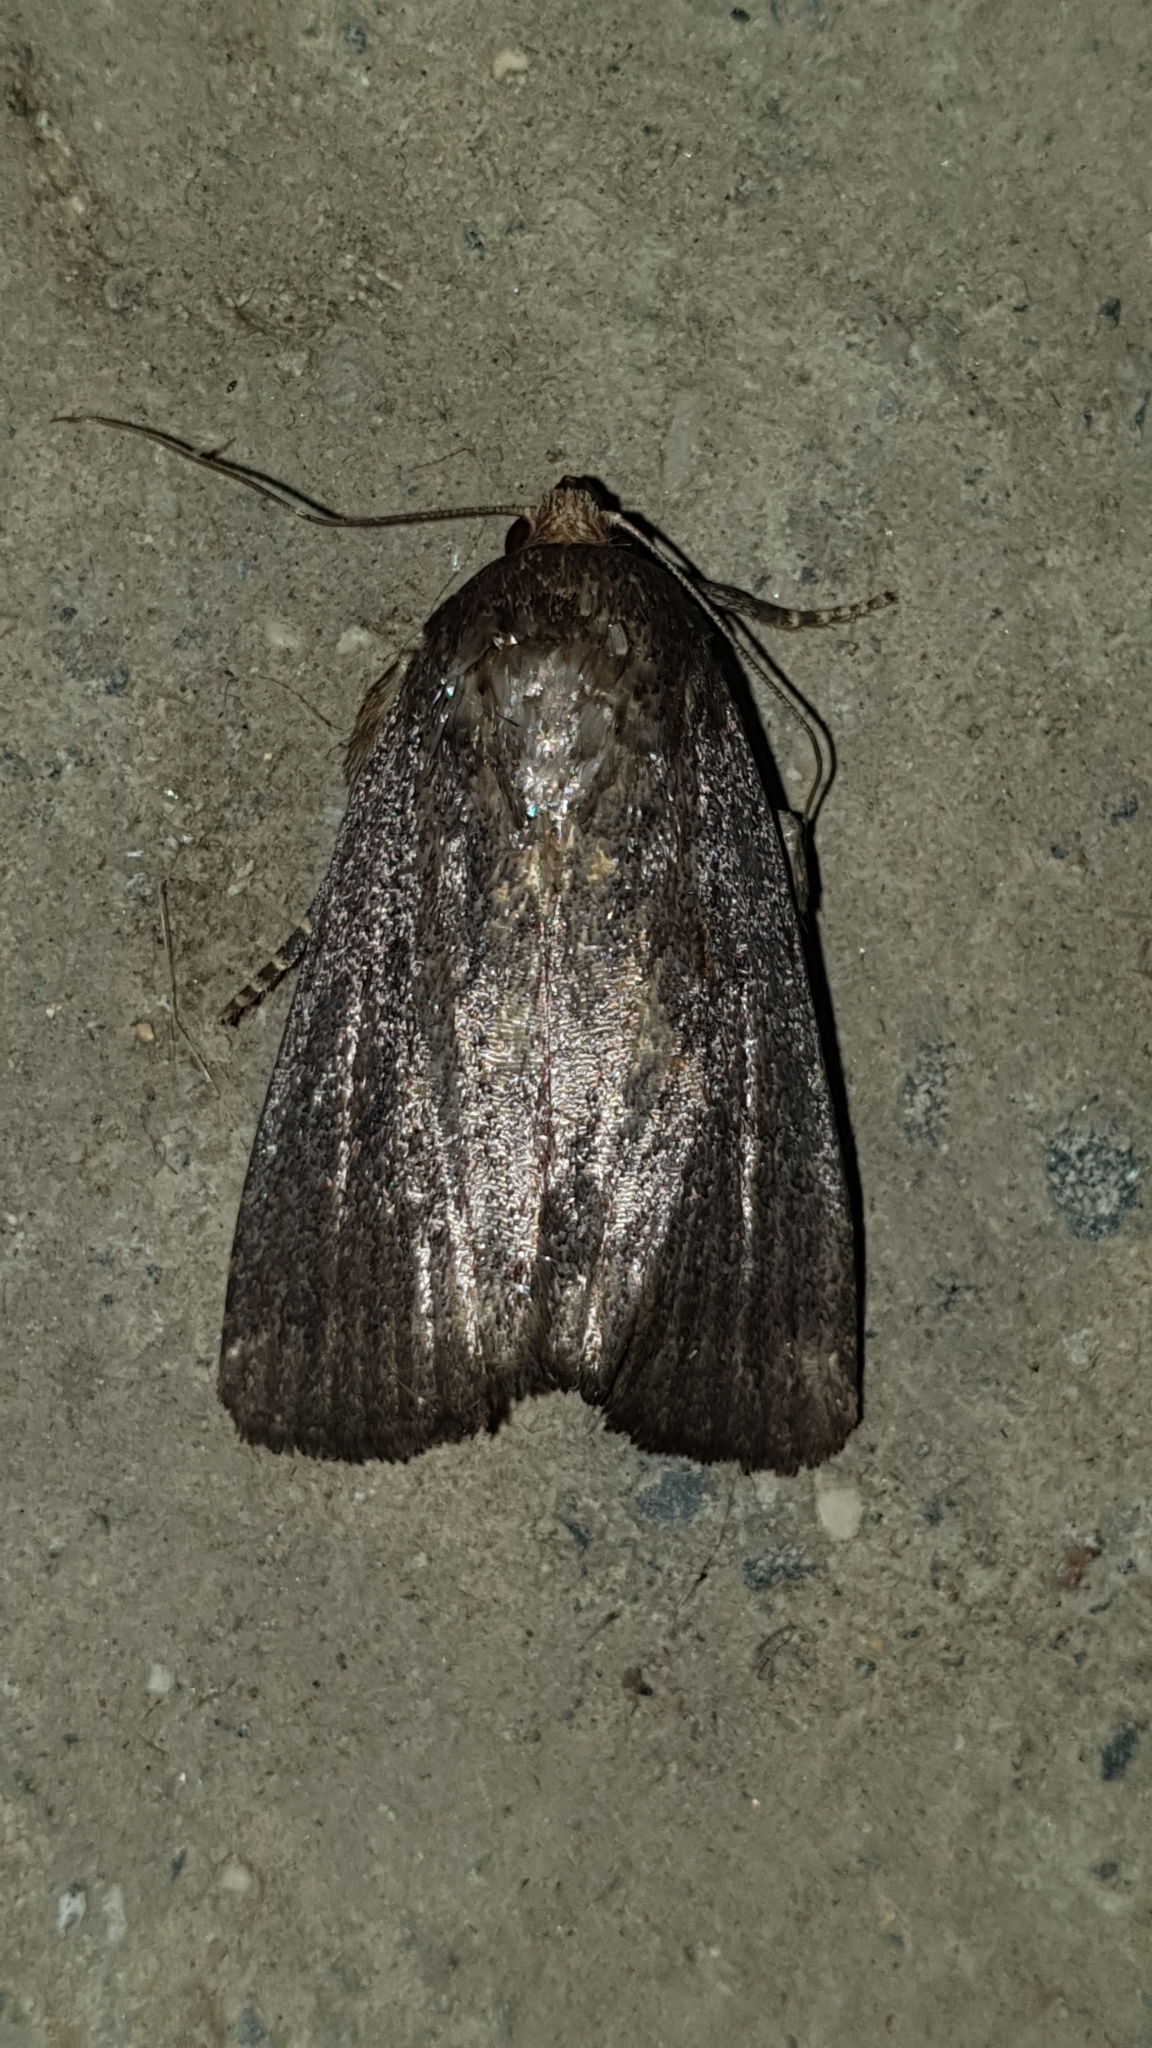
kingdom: Animalia
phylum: Arthropoda
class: Insecta
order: Lepidoptera
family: Noctuidae
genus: Amphipyra
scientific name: Amphipyra tragopoginis
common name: Mouse moth
